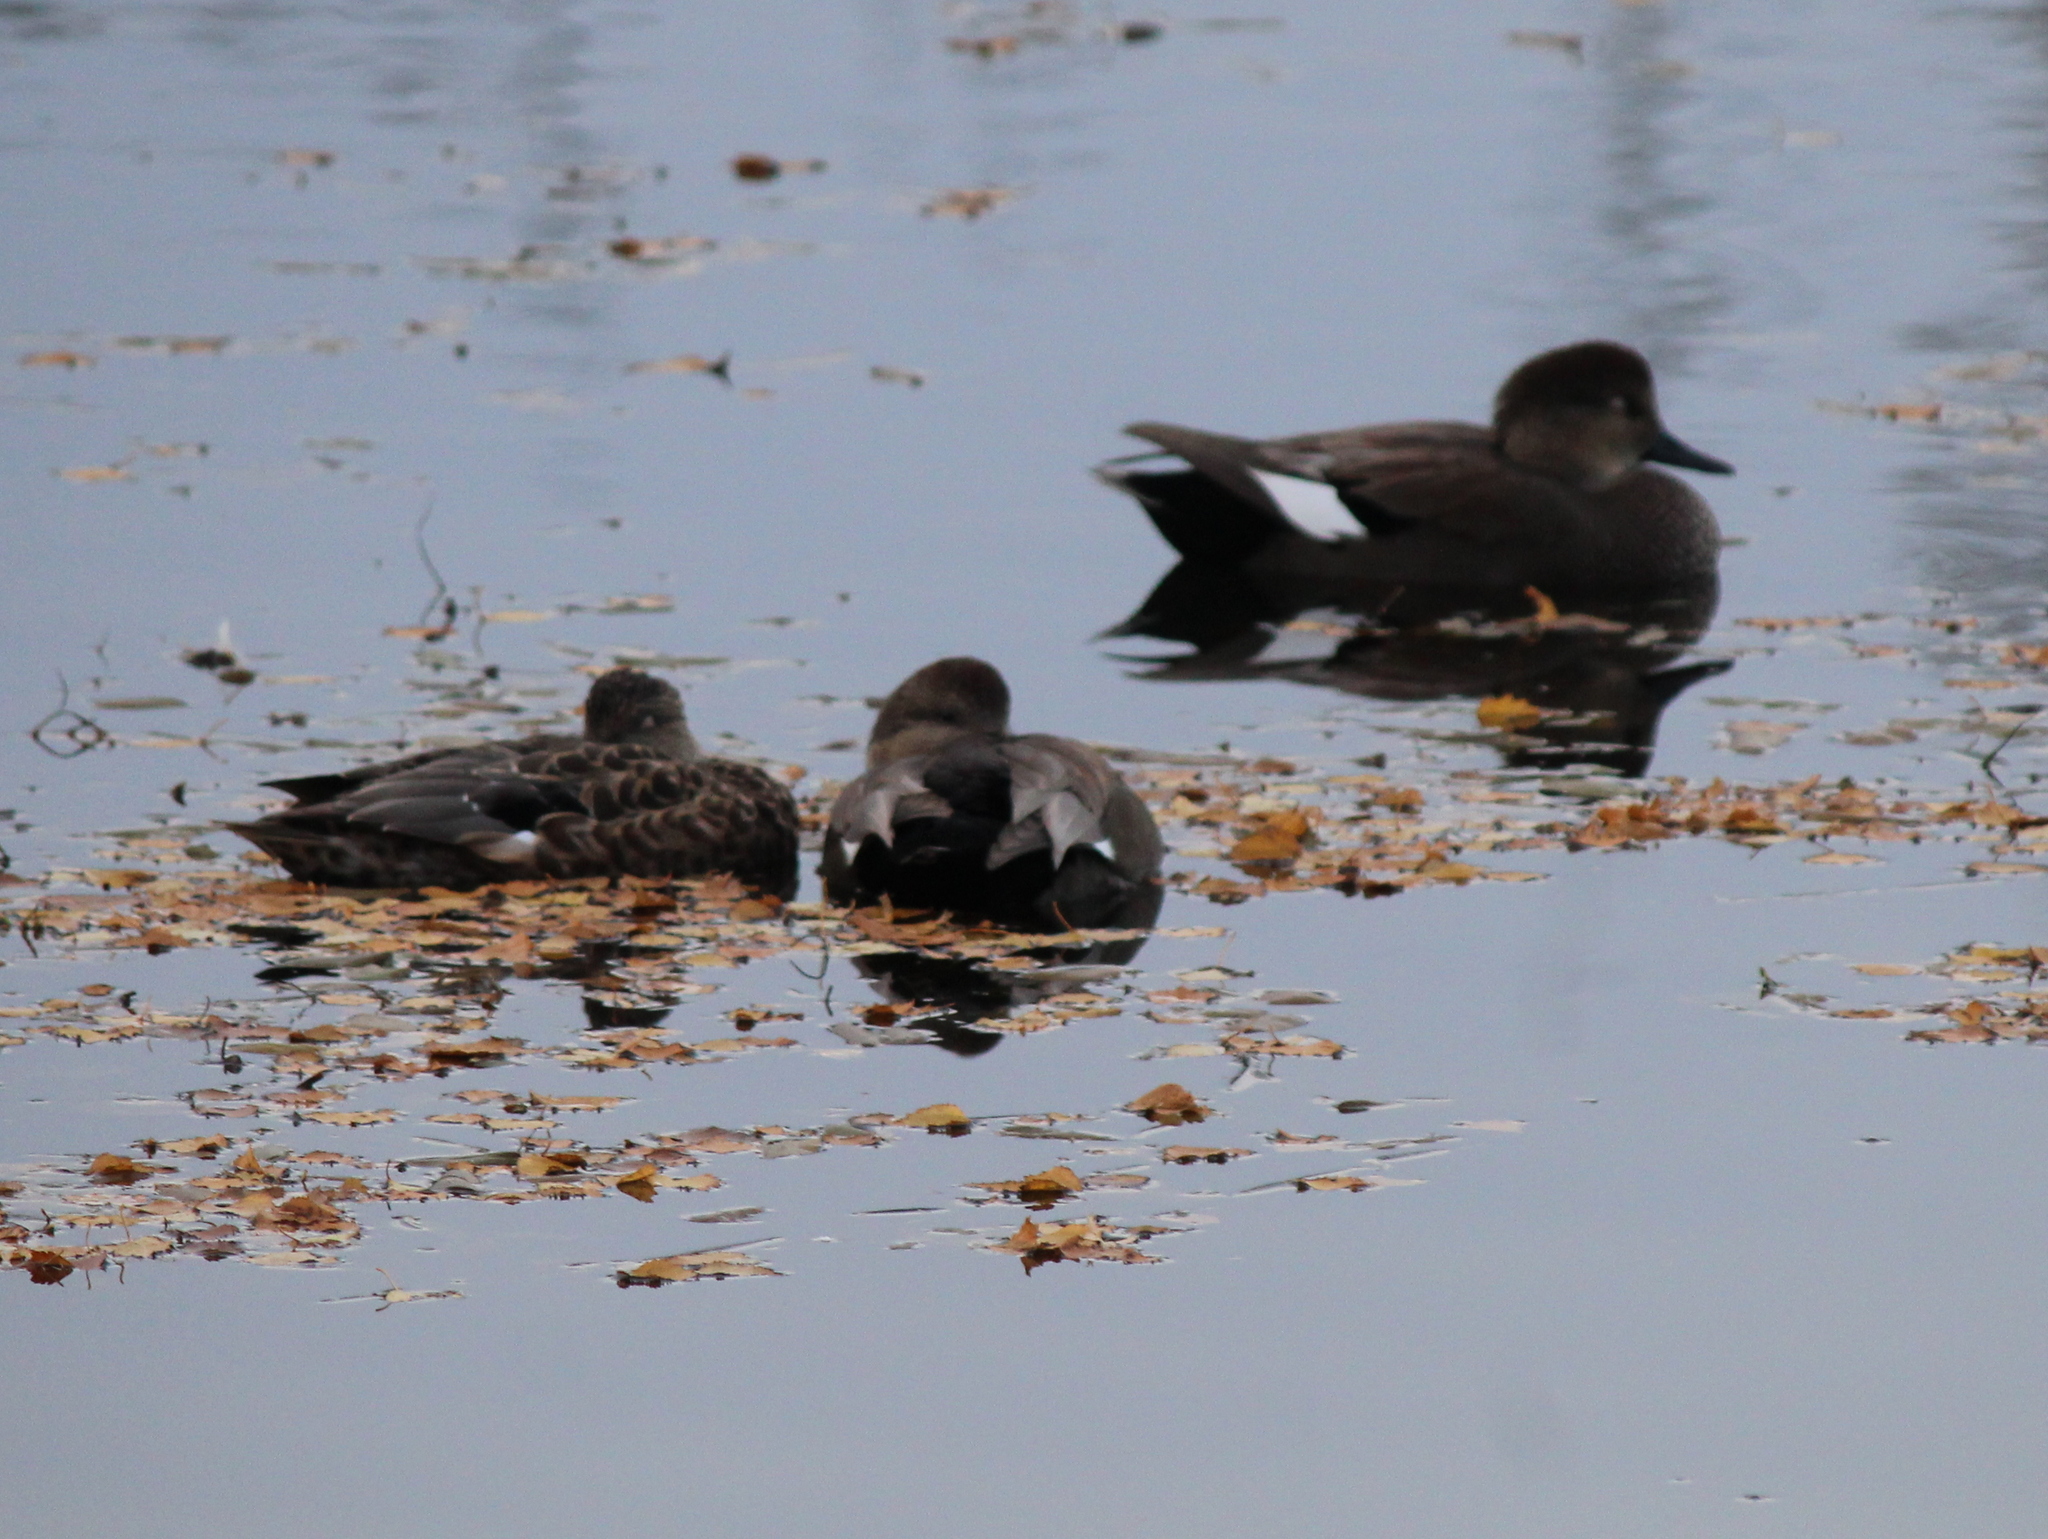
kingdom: Animalia
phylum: Chordata
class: Aves
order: Anseriformes
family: Anatidae
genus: Mareca
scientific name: Mareca strepera
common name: Gadwall
